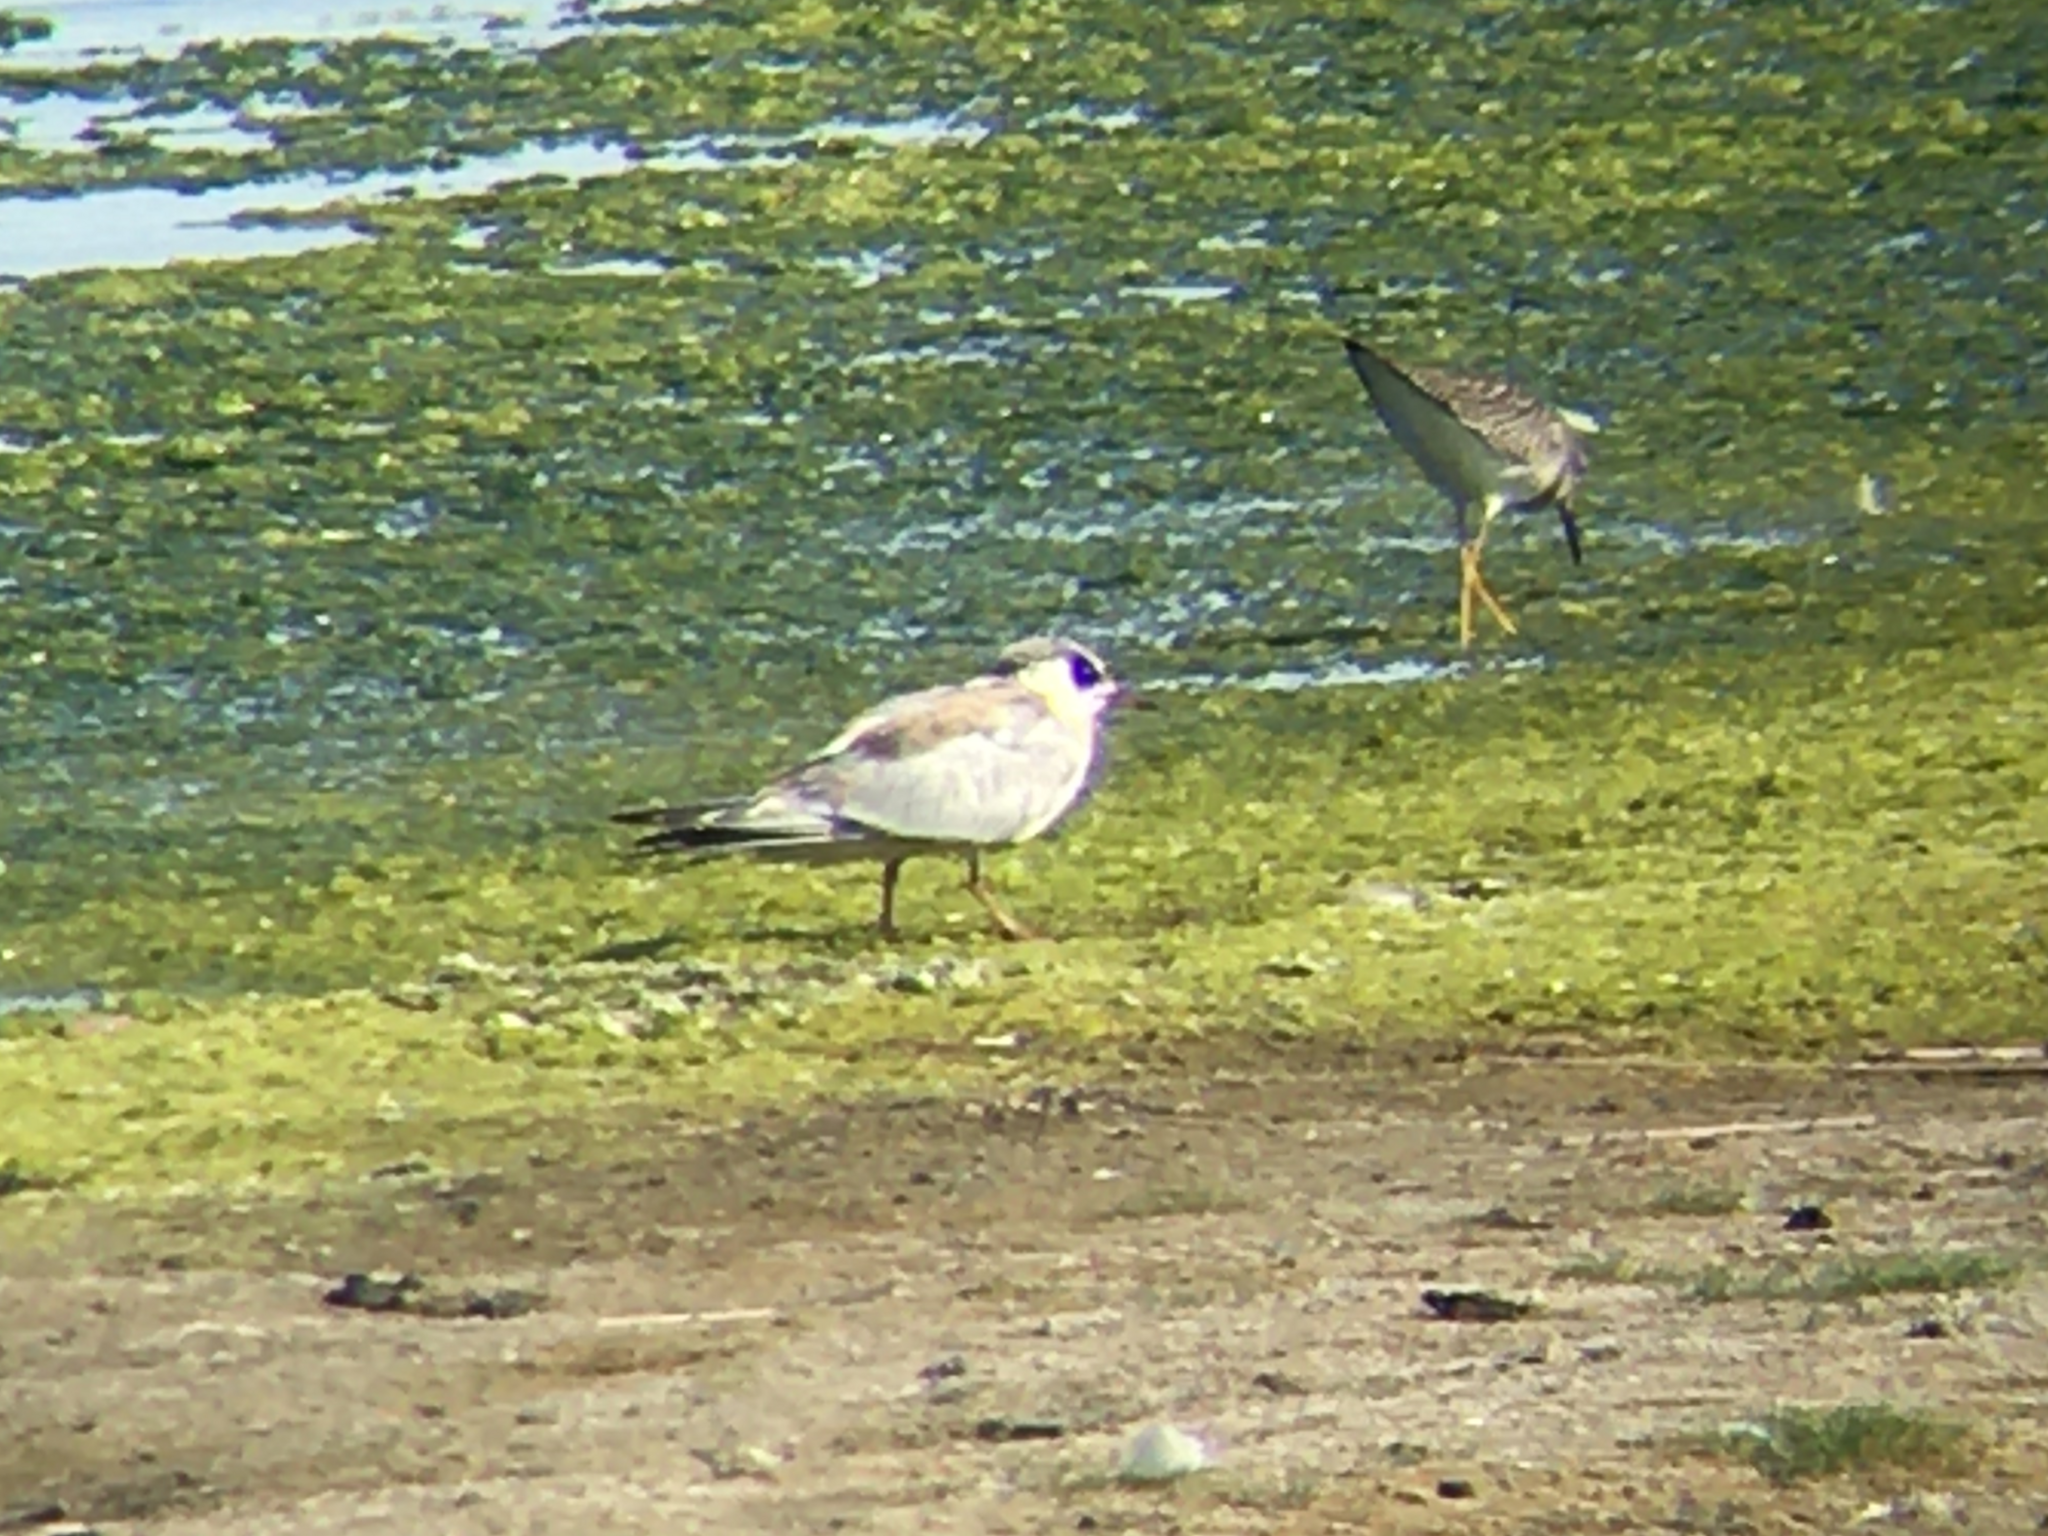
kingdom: Animalia
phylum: Chordata
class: Aves
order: Charadriiformes
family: Laridae
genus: Sterna
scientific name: Sterna forsteri
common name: Forster's tern
